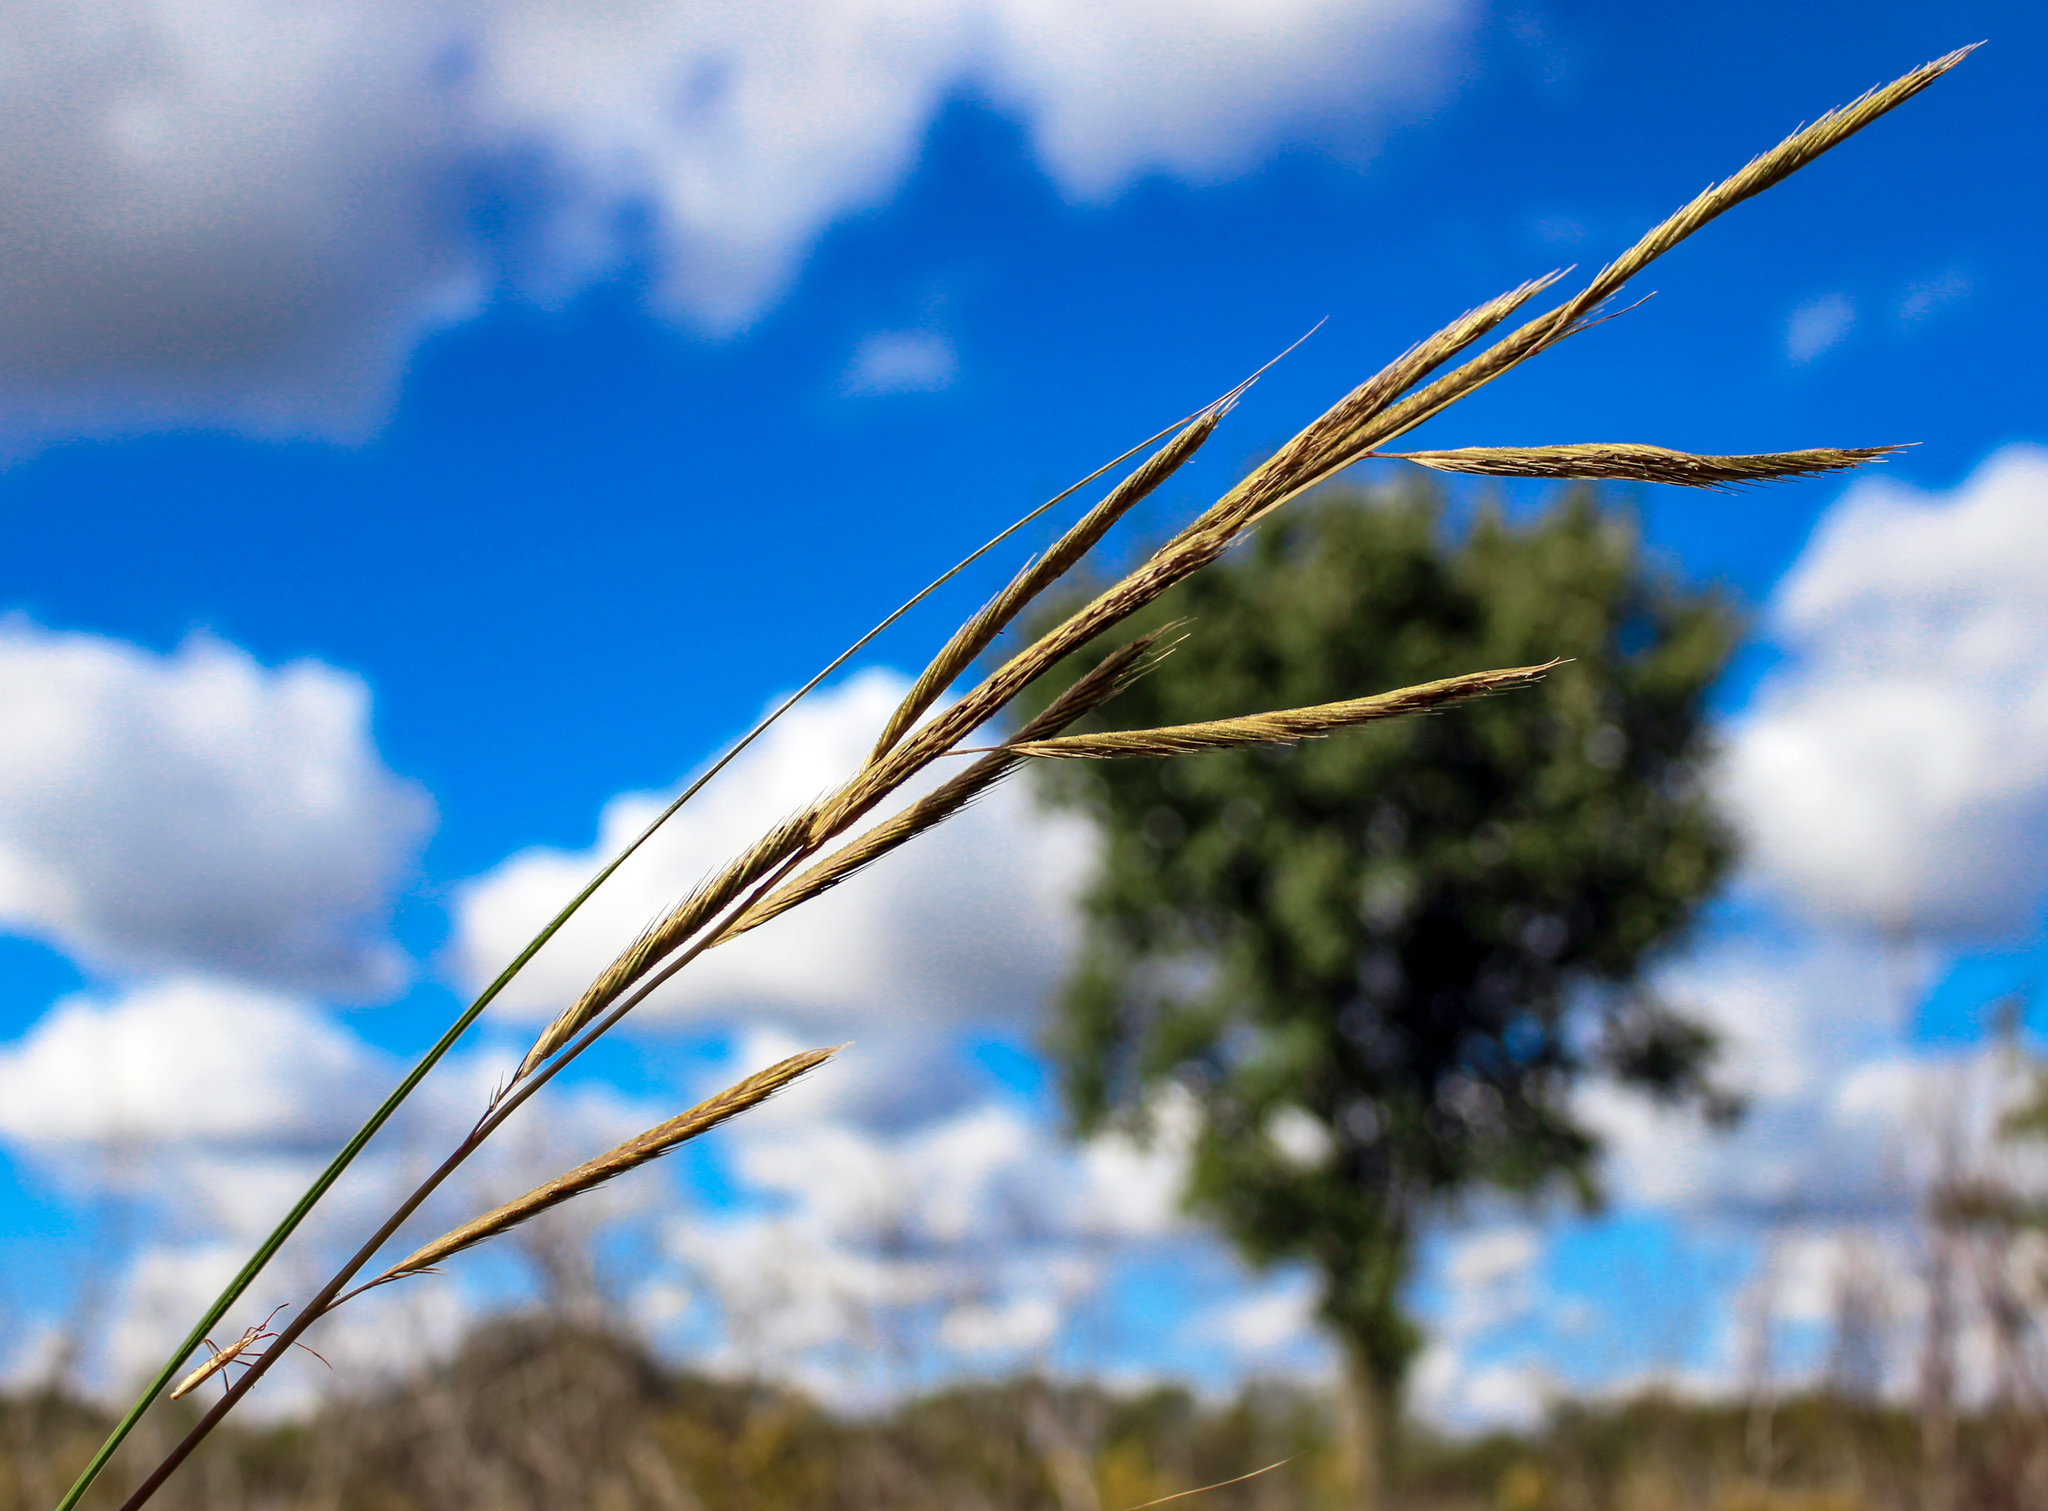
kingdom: Plantae
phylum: Tracheophyta
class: Liliopsida
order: Poales
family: Poaceae
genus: Sporobolus
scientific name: Sporobolus michauxianus
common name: Freshwater cordgrass
